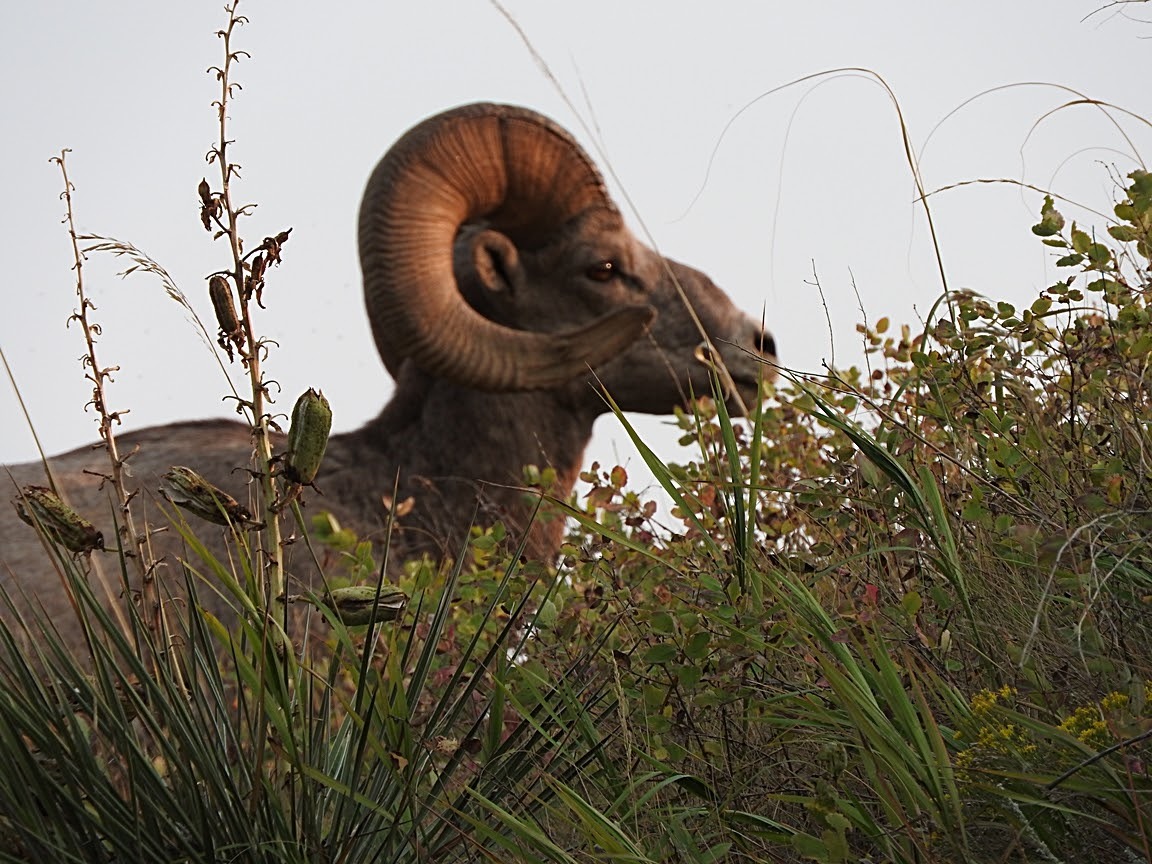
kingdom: Animalia
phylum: Chordata
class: Mammalia
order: Artiodactyla
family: Bovidae
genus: Ovis
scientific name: Ovis canadensis
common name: Bighorn sheep
